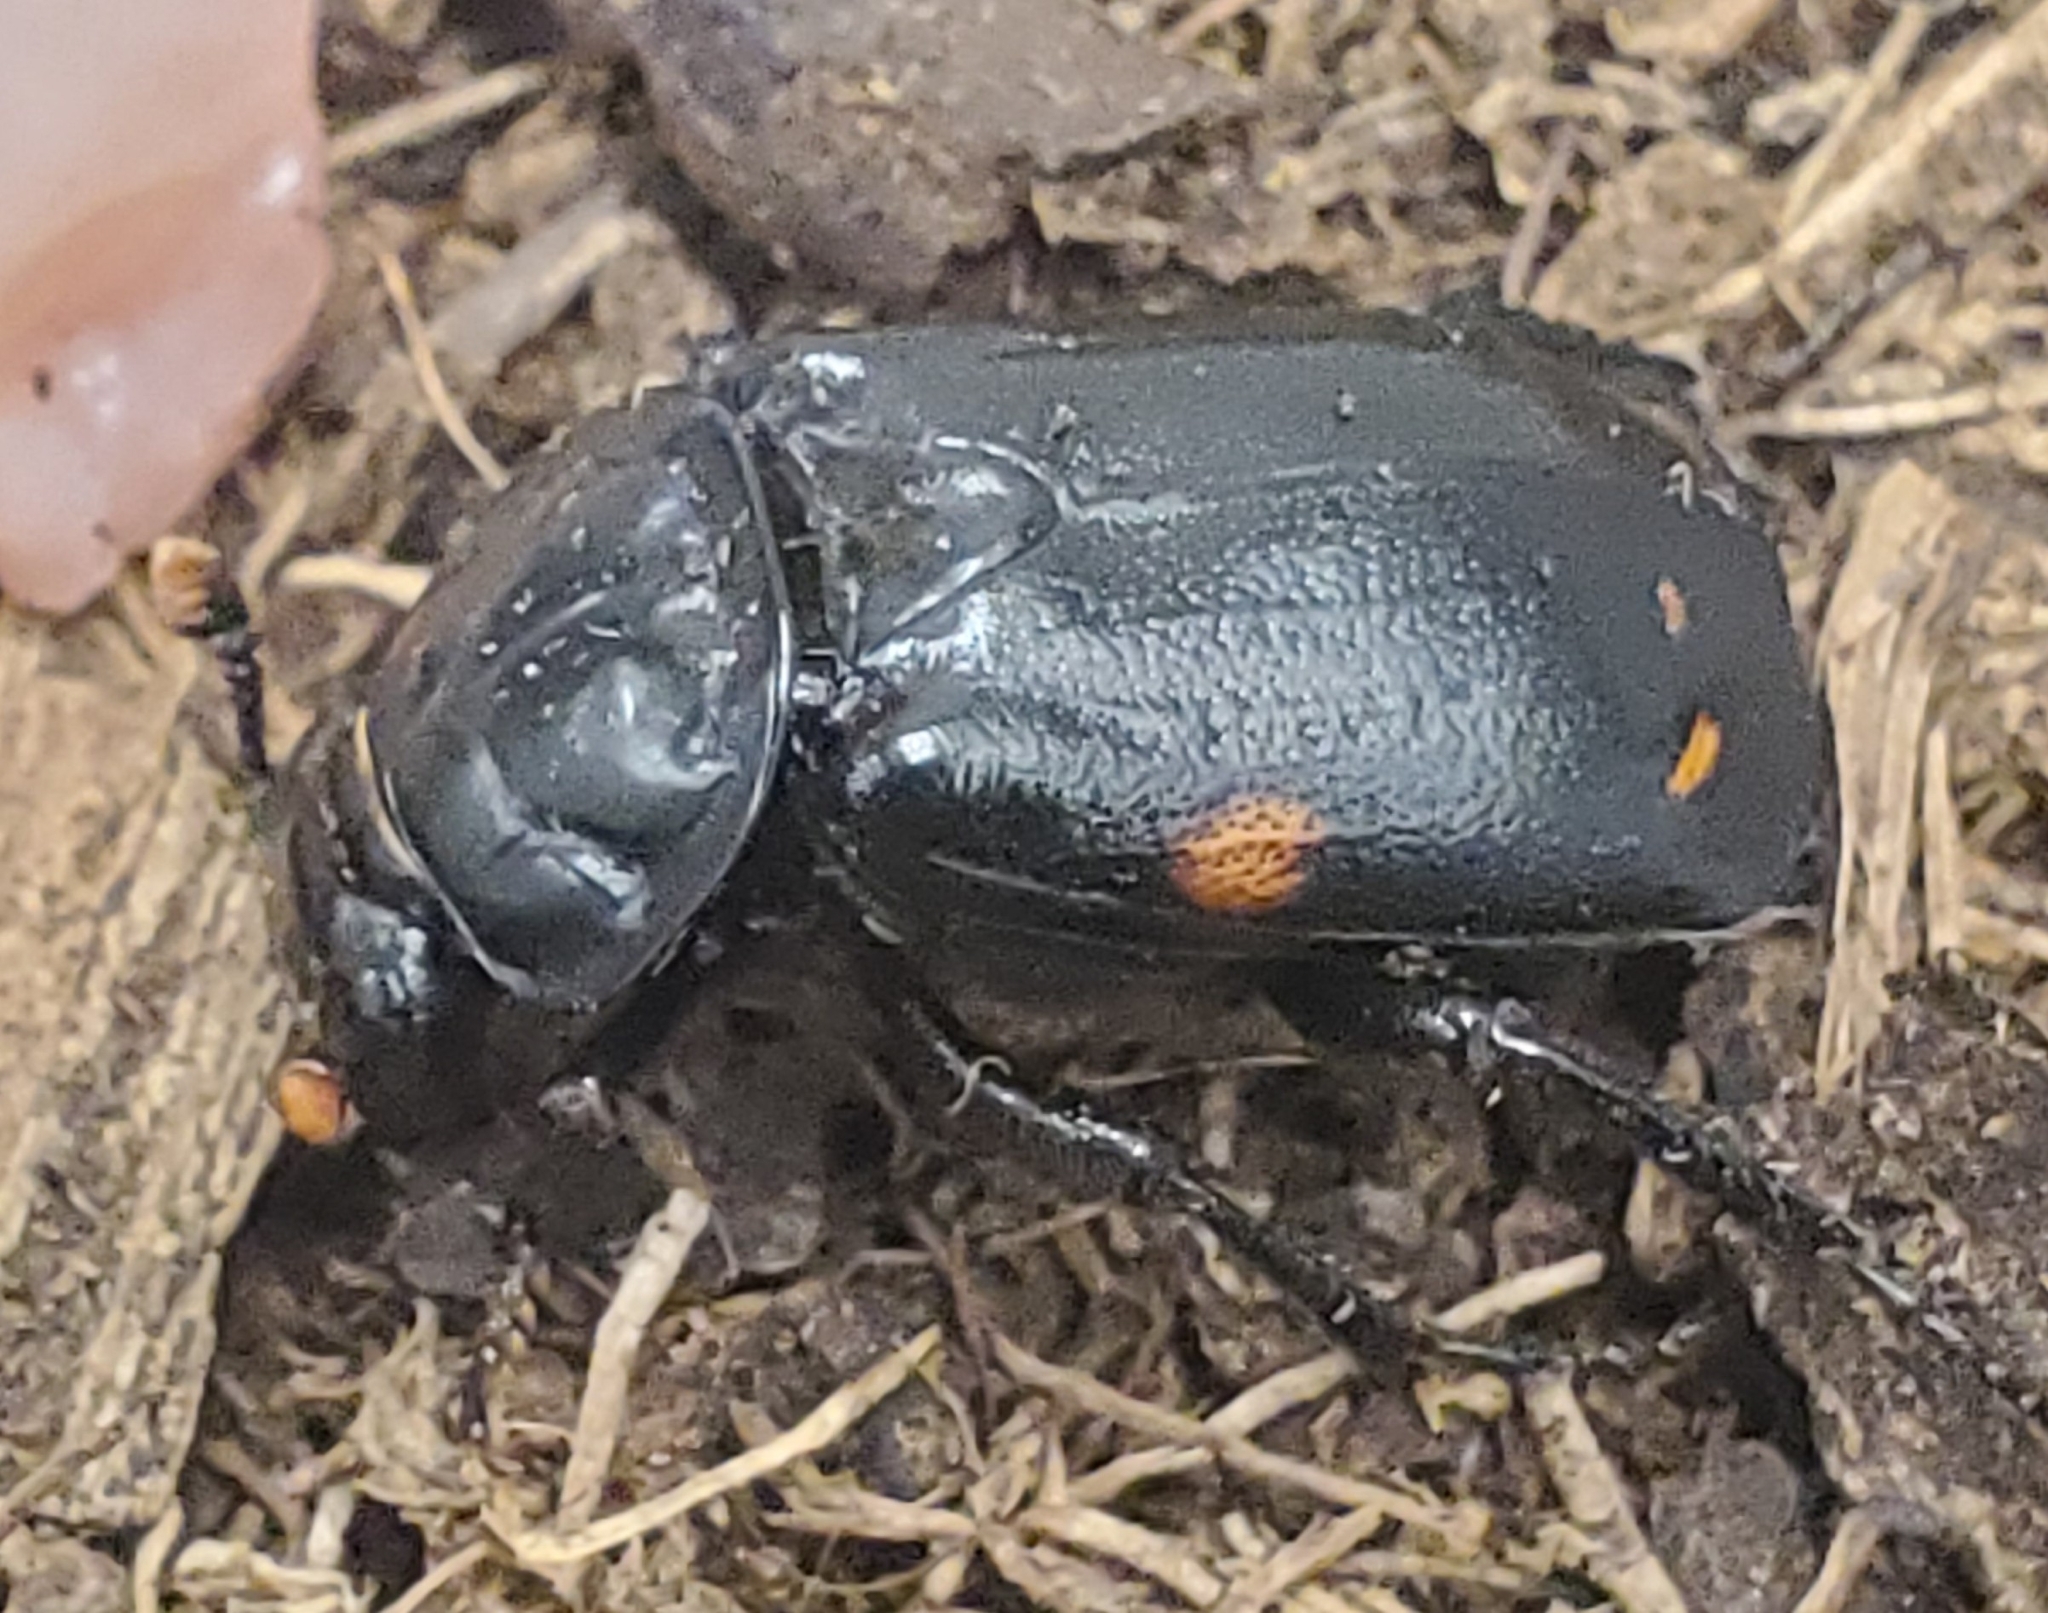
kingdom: Animalia
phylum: Arthropoda
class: Insecta
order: Coleoptera
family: Staphylinidae
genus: Nicrophorus
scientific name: Nicrophorus pustulatus
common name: Pustulated carrion beetle
